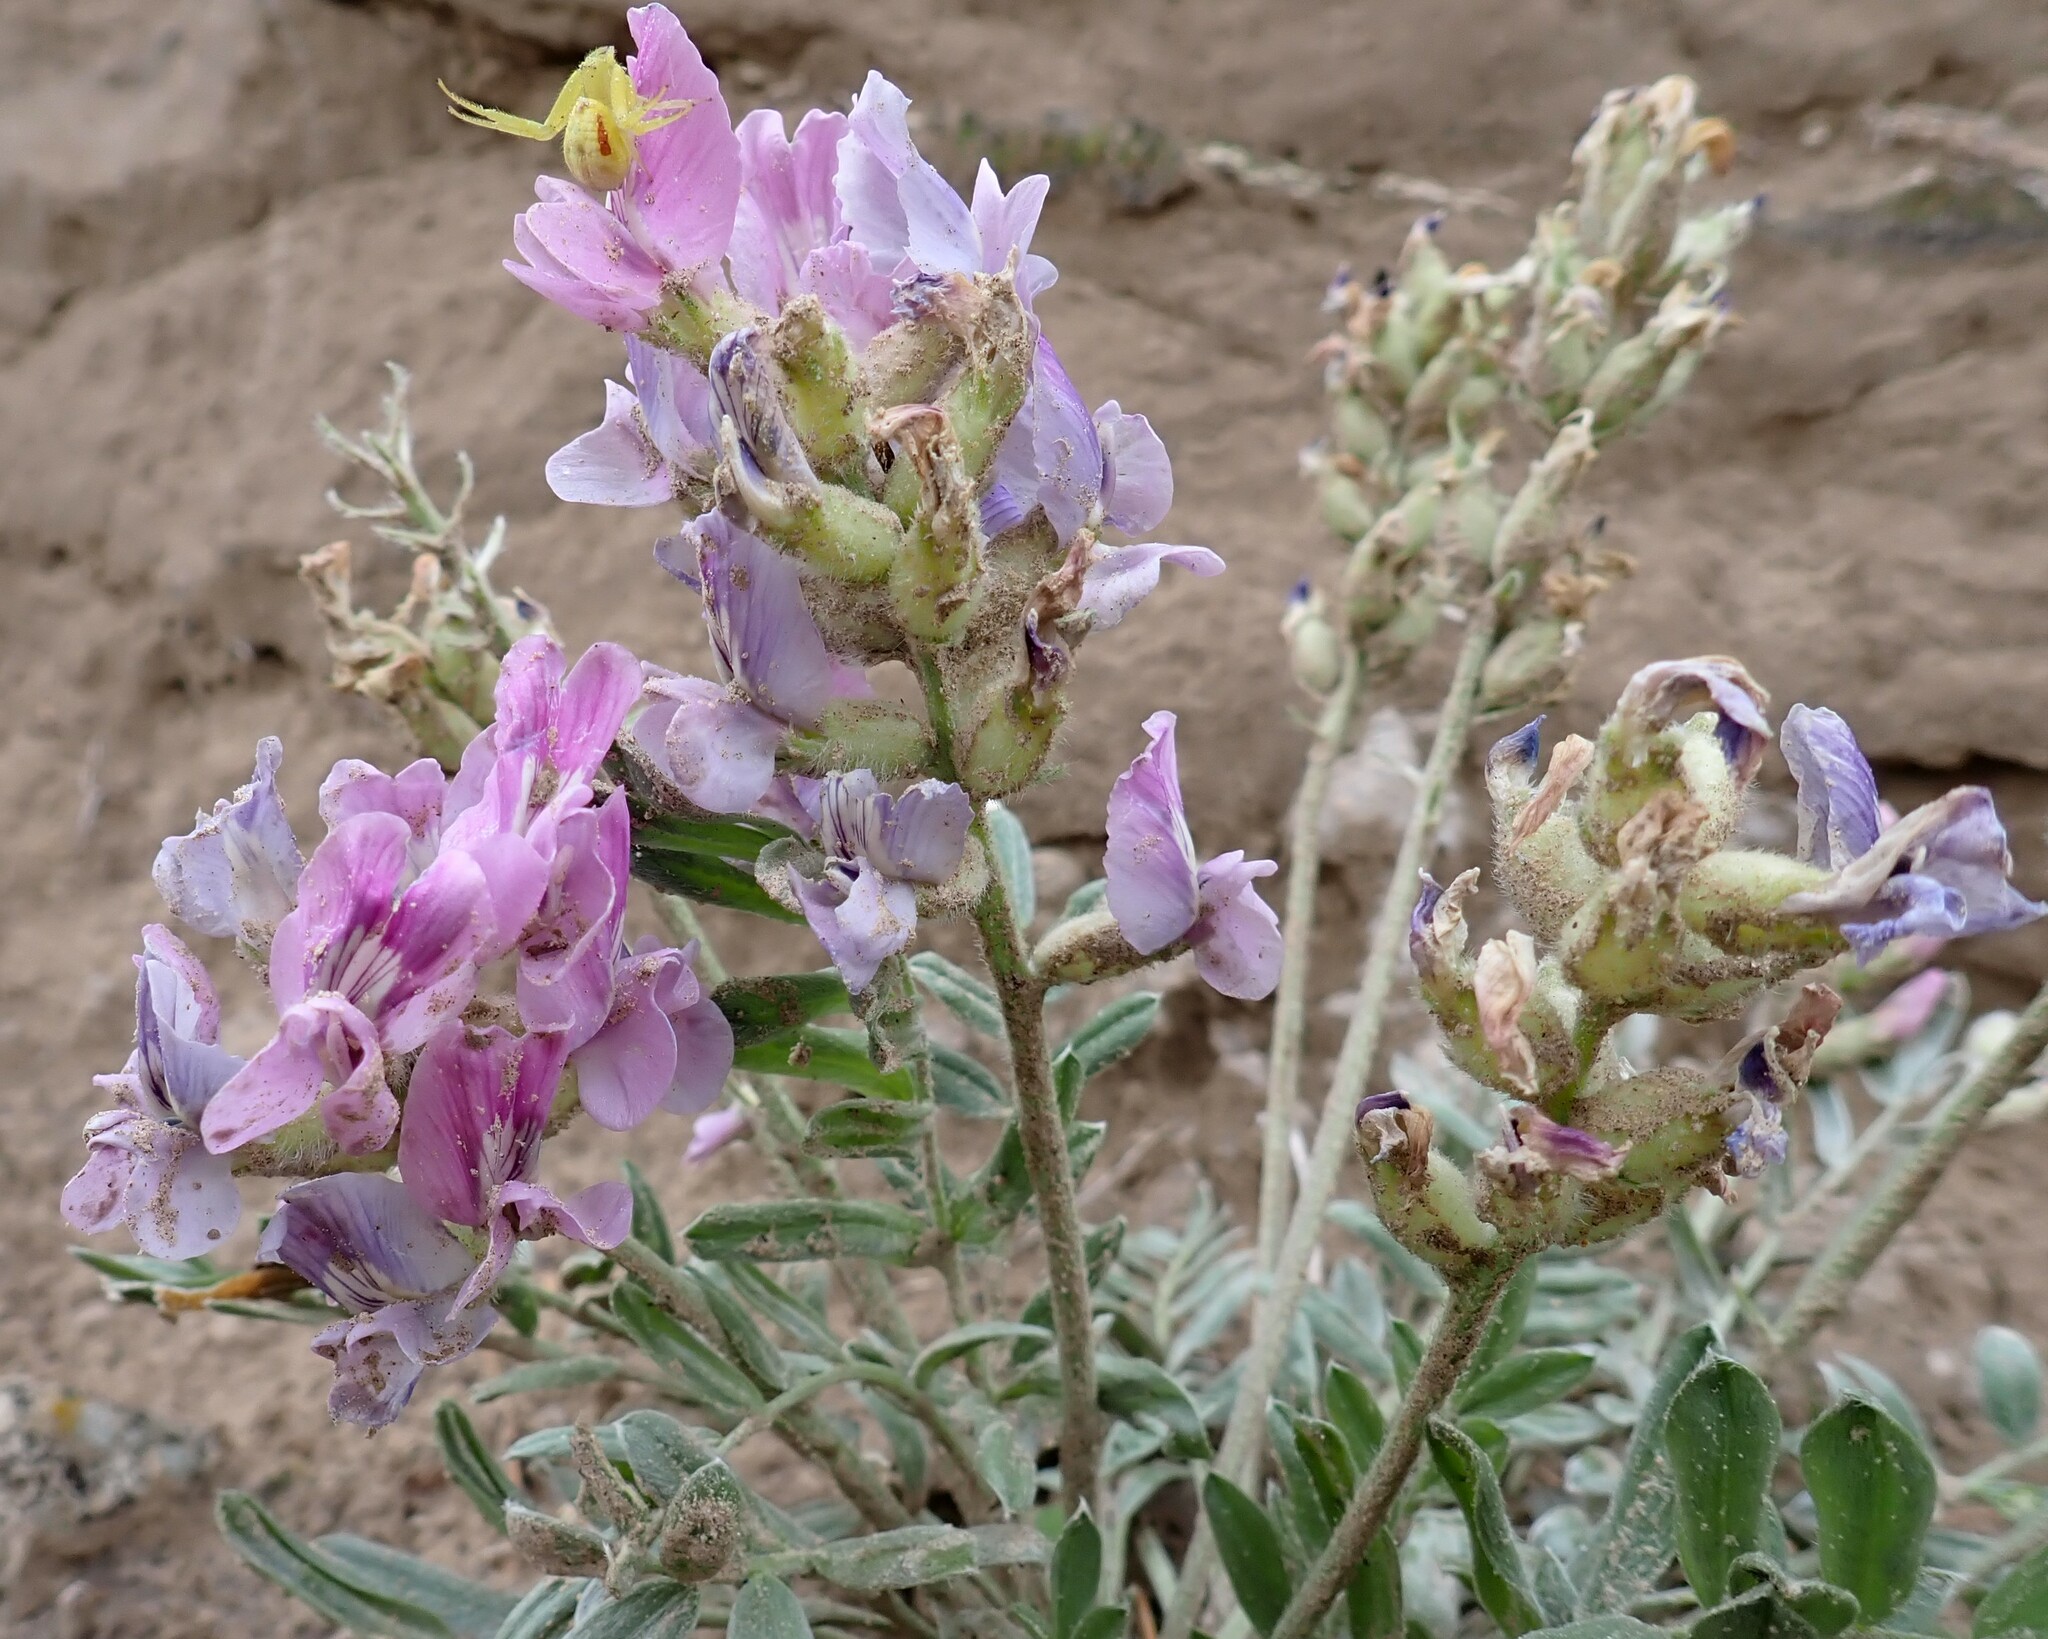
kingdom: Plantae
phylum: Tracheophyta
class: Magnoliopsida
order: Fabales
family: Fabaceae
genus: Oxytropis
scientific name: Oxytropis lambertii
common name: Purple locoweed
